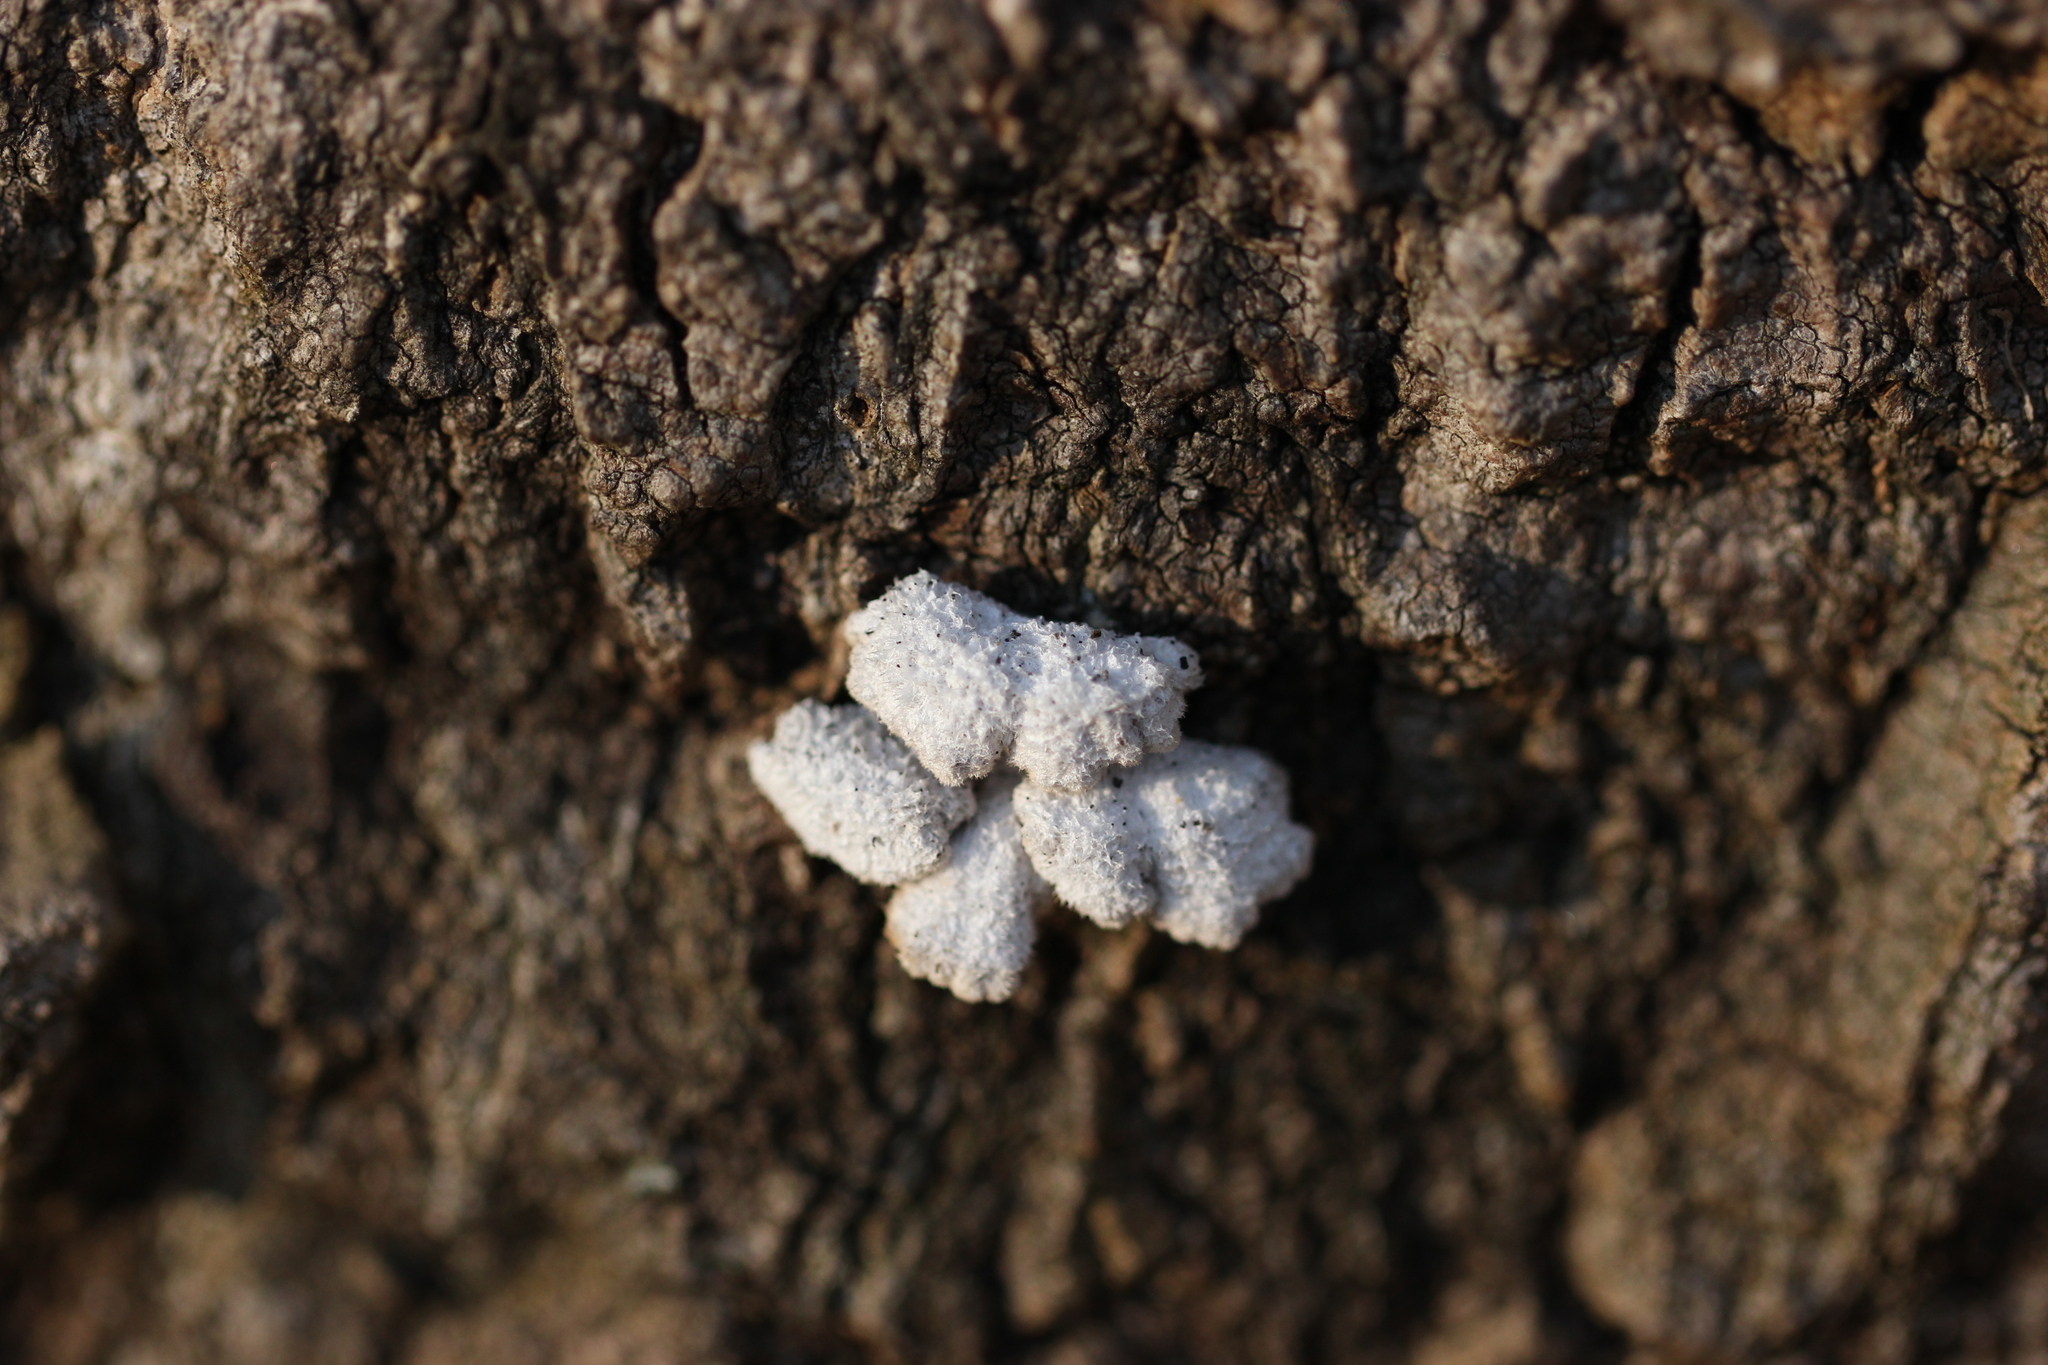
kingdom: Fungi
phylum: Basidiomycota
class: Agaricomycetes
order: Agaricales
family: Schizophyllaceae
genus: Schizophyllum
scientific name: Schizophyllum commune
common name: Common porecrust
